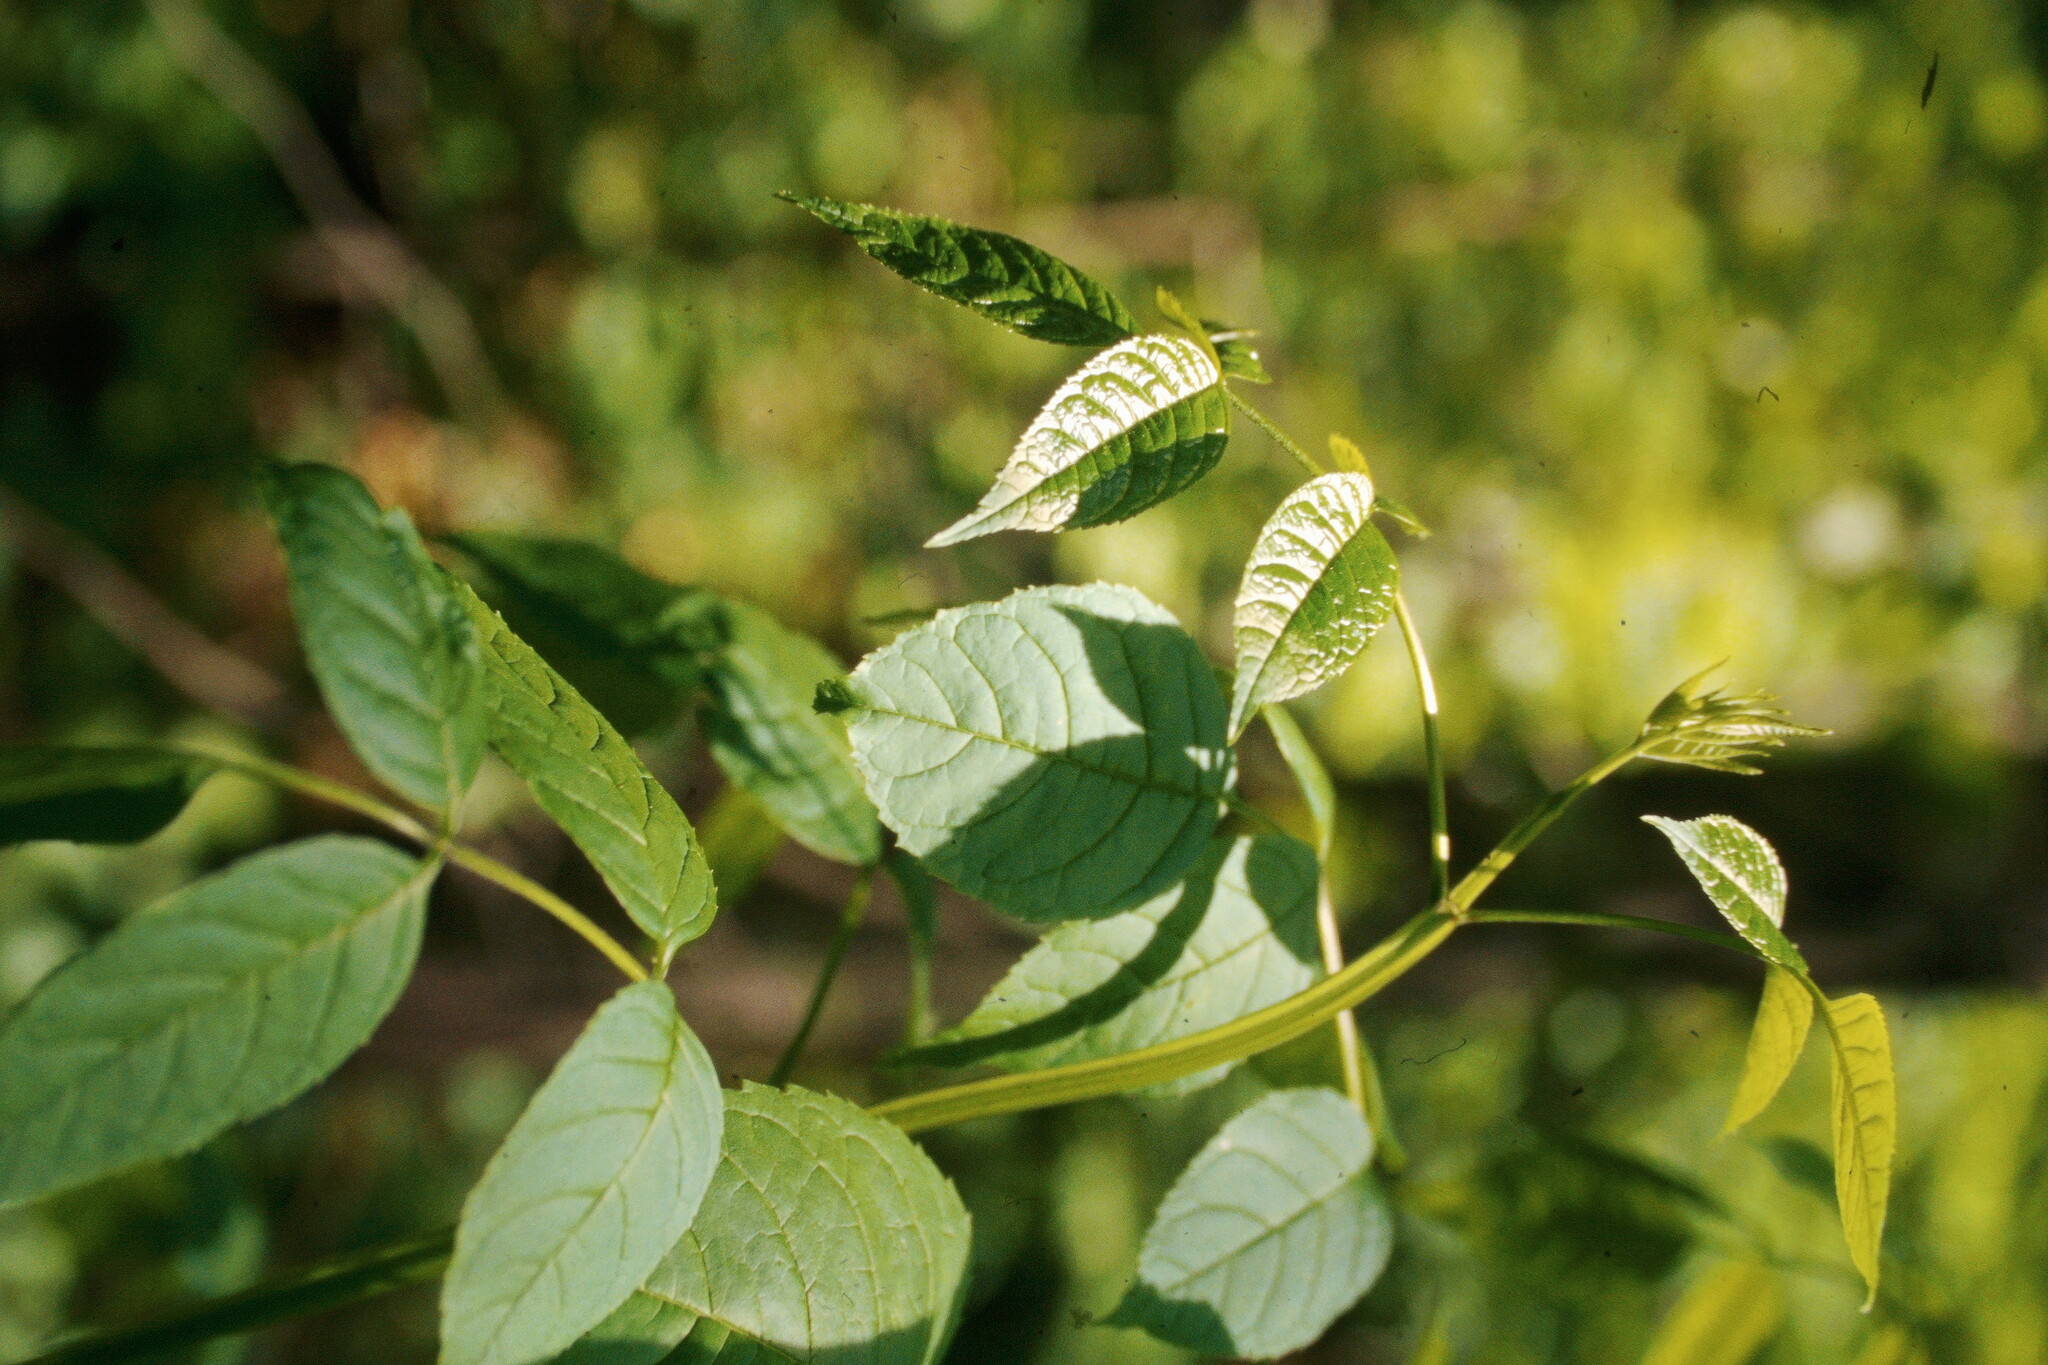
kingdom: Plantae
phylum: Tracheophyta
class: Magnoliopsida
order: Lamiales
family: Oleaceae
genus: Fraxinus
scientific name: Fraxinus quadrangulata
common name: Blue ash
